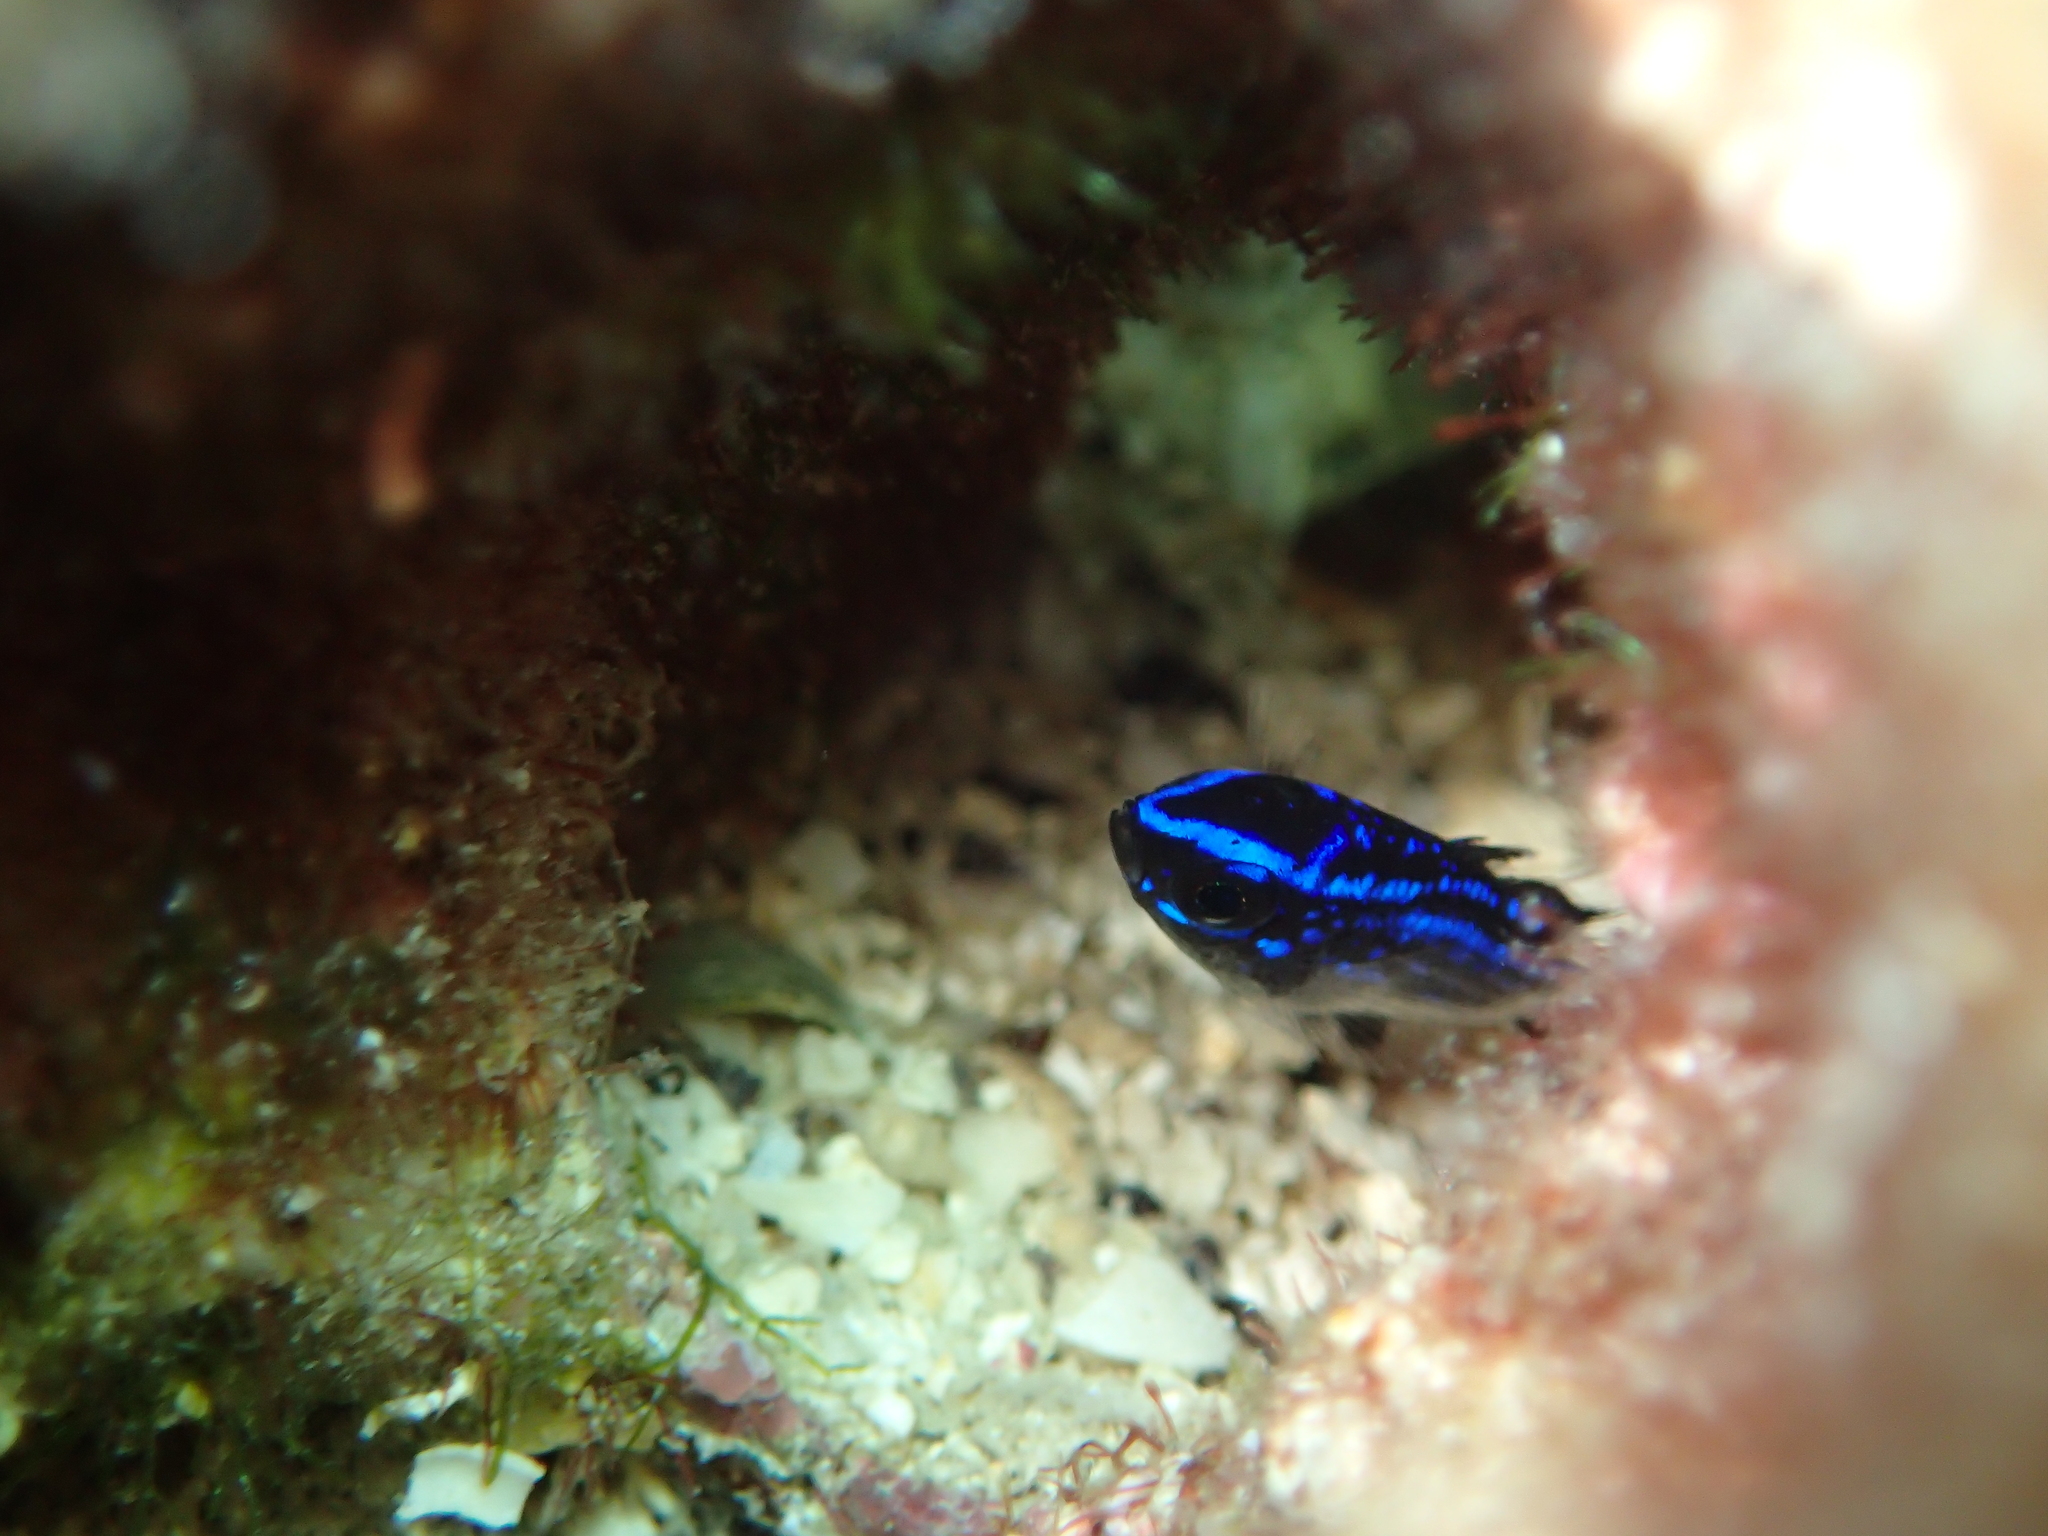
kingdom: Animalia
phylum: Chordata
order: Perciformes
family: Pomacentridae
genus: Chromis
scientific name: Chromis chromis
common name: Damselfish
